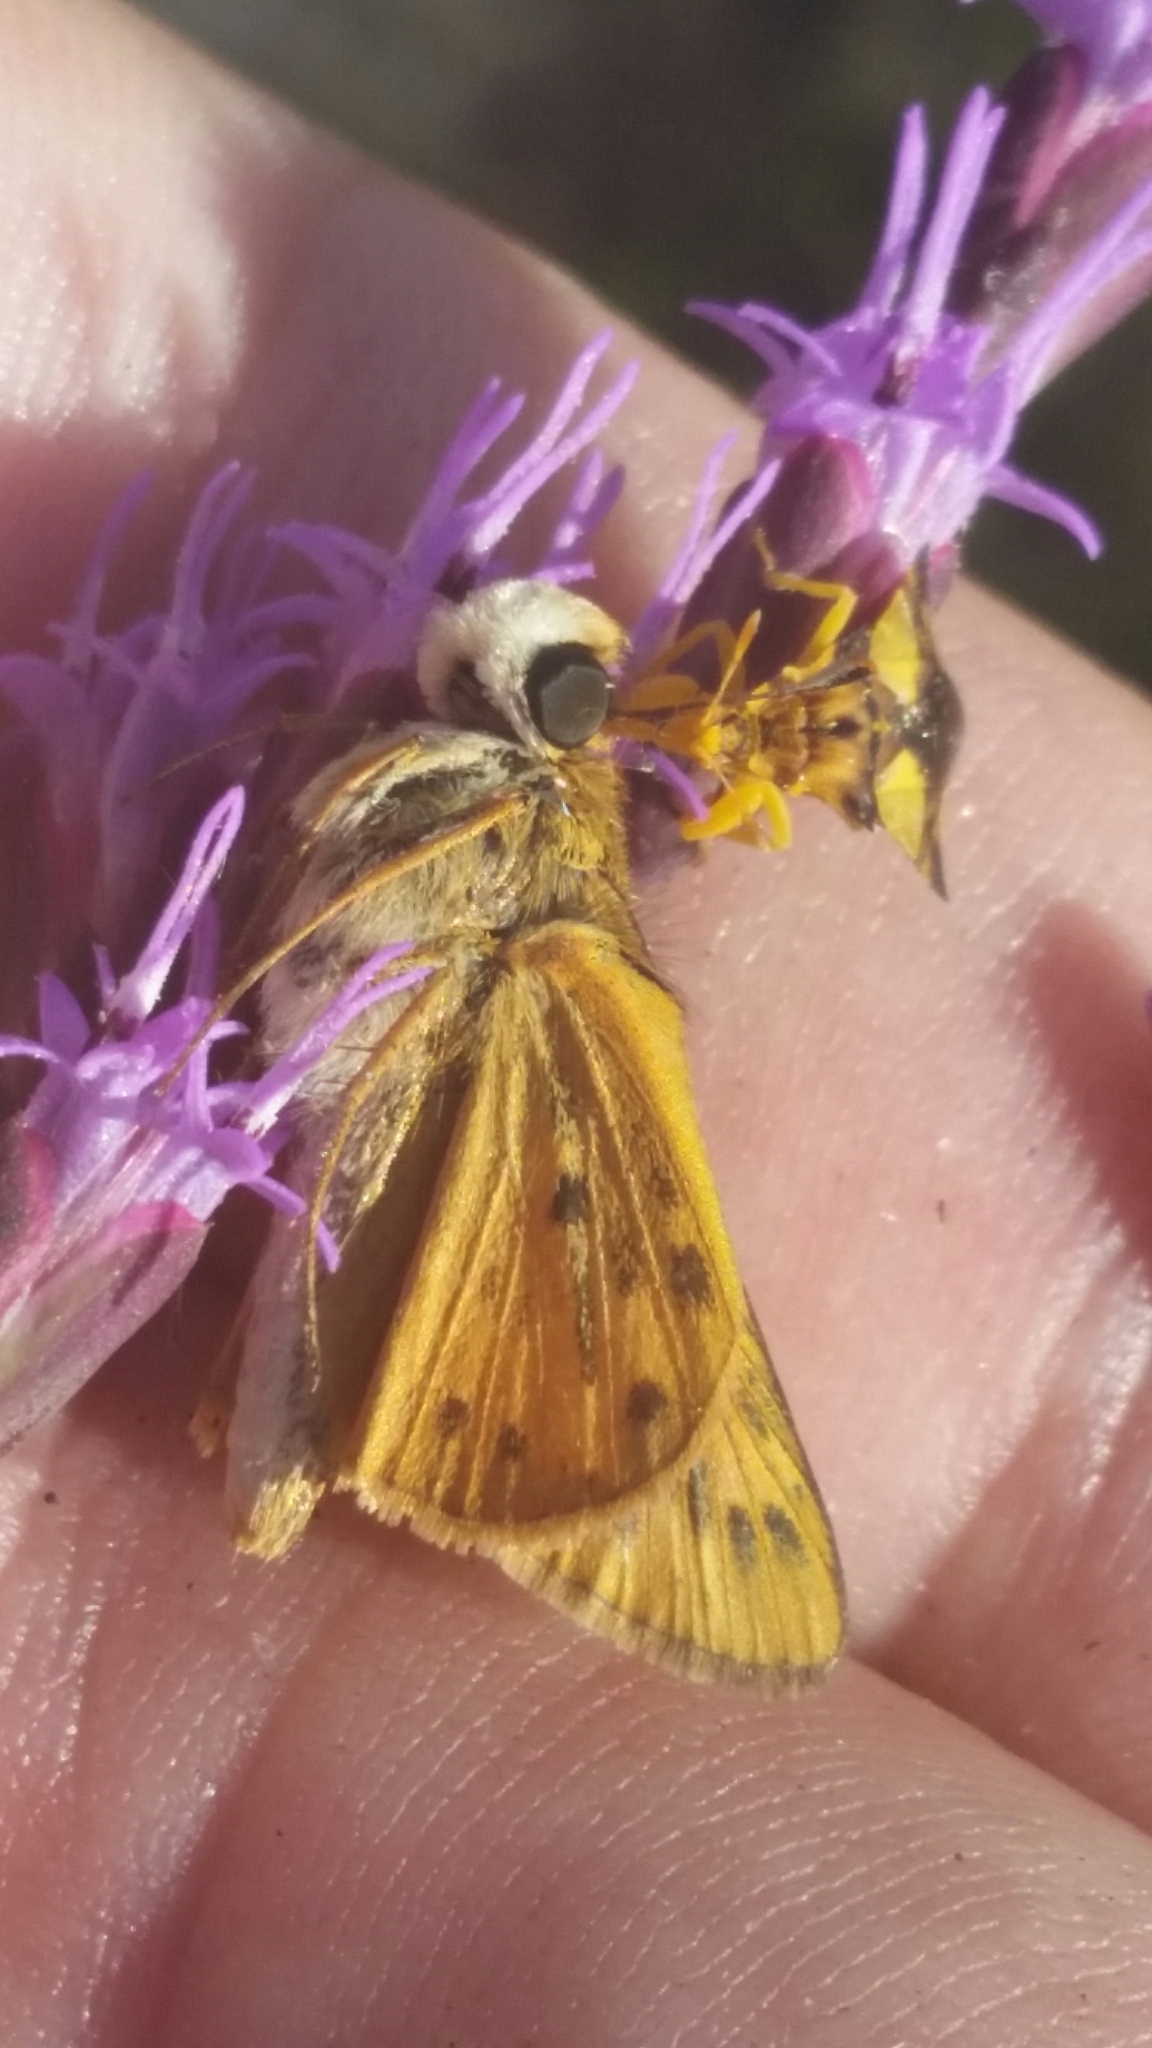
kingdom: Animalia
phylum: Arthropoda
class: Insecta
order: Lepidoptera
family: Hesperiidae
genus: Hylephila
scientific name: Hylephila phyleus
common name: Fiery skipper
